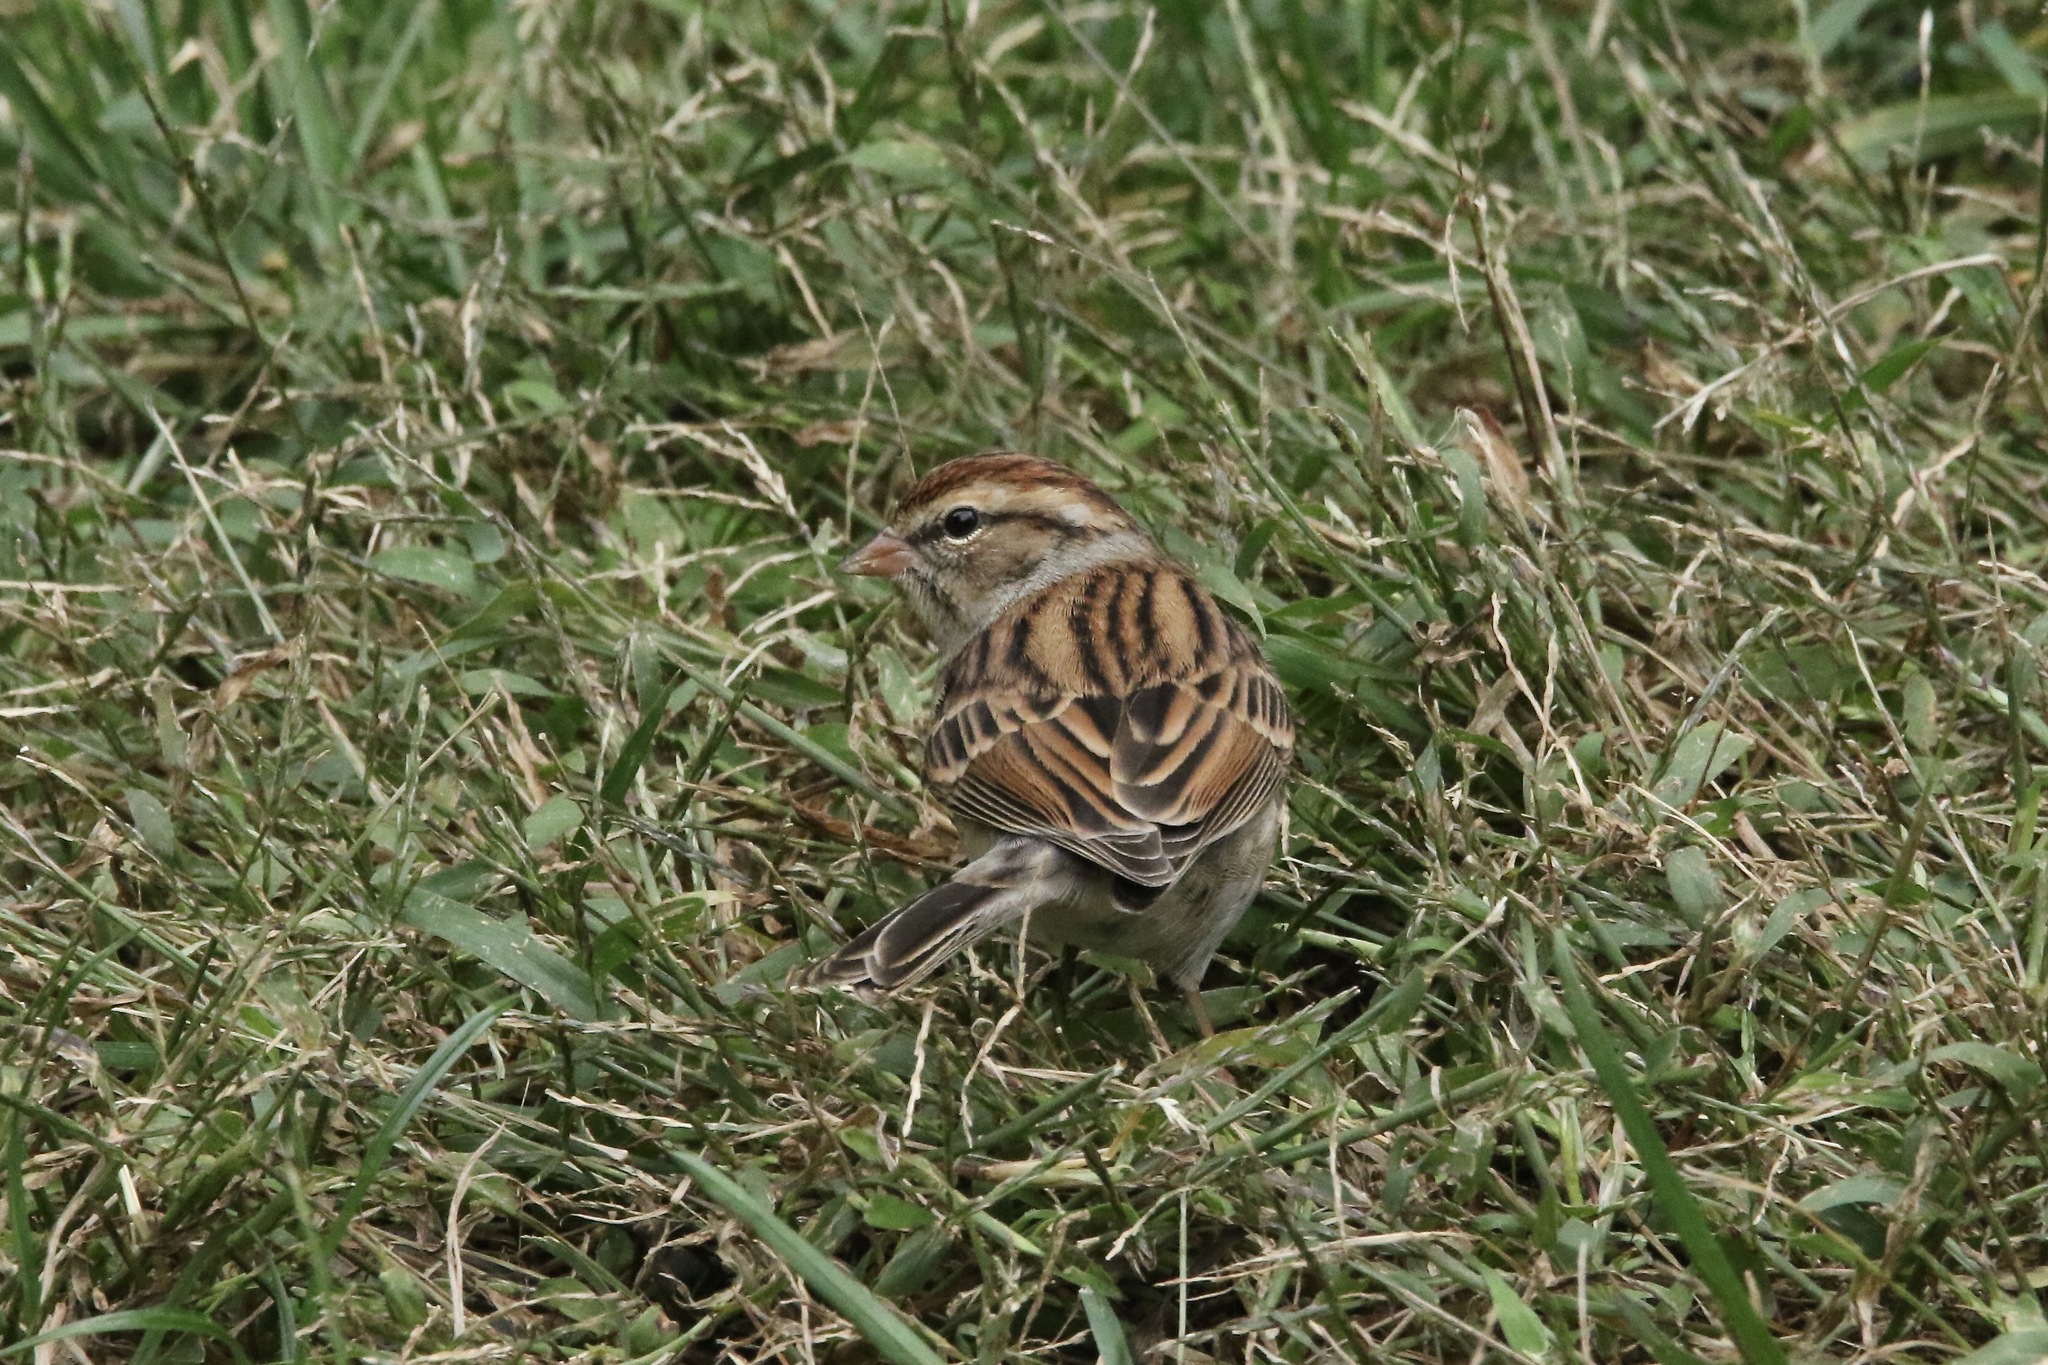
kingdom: Animalia
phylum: Chordata
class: Aves
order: Passeriformes
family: Passerellidae
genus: Spizella
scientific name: Spizella passerina
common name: Chipping sparrow
